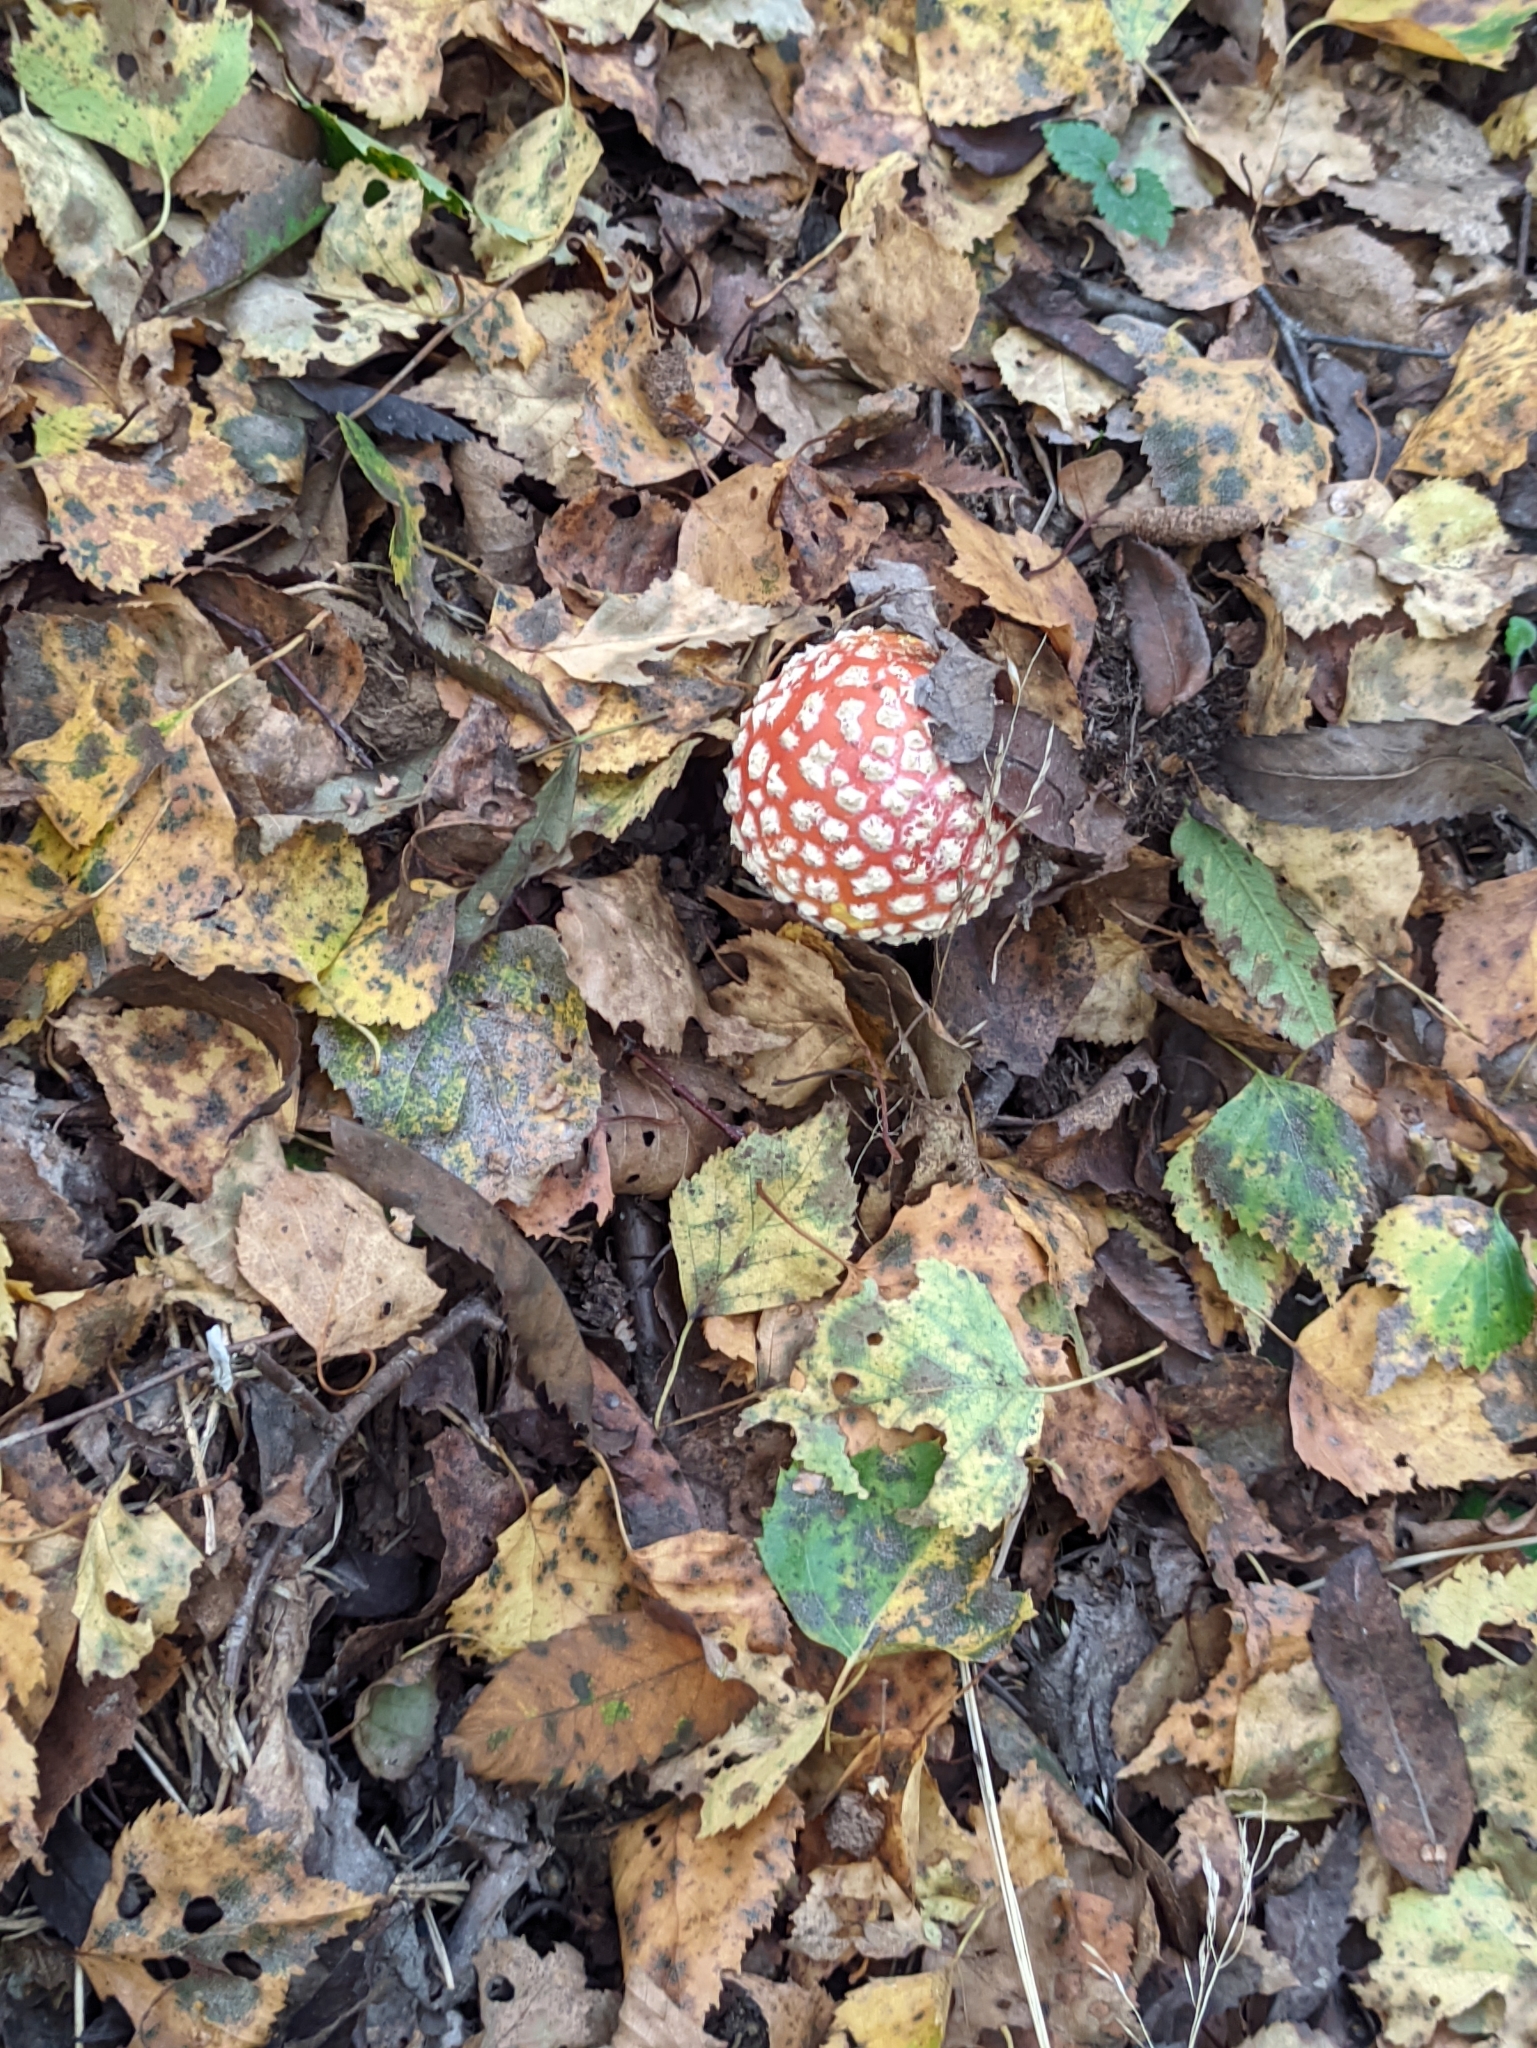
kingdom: Fungi
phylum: Basidiomycota
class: Agaricomycetes
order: Agaricales
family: Amanitaceae
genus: Amanita
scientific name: Amanita muscaria
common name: Fly agaric
